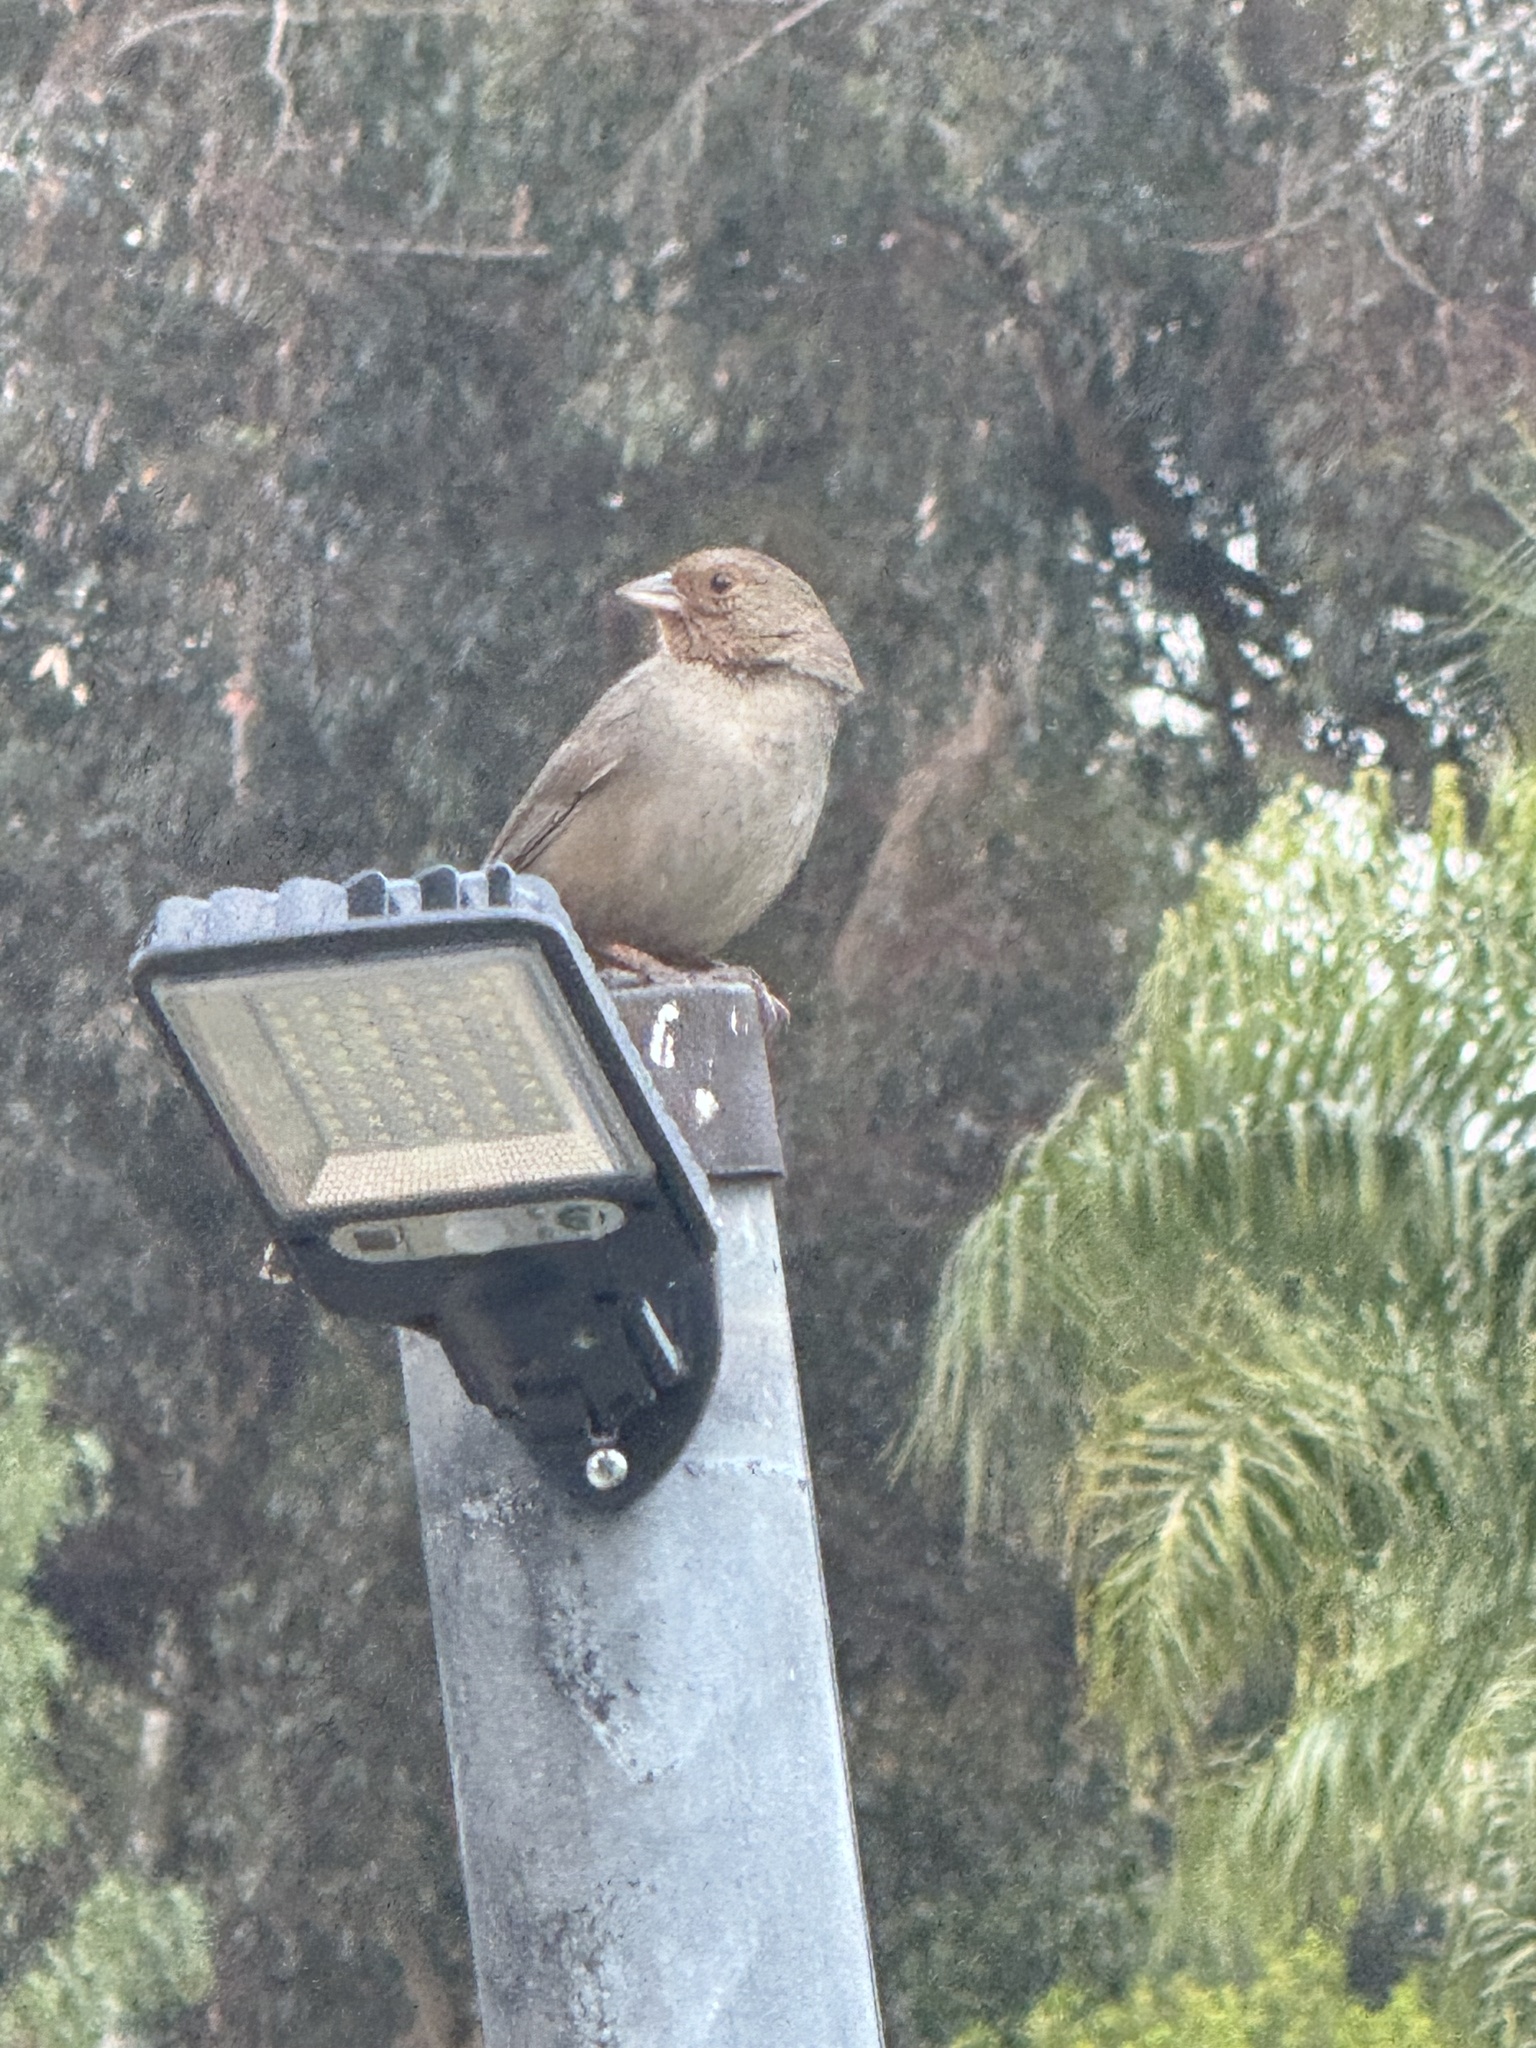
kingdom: Animalia
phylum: Chordata
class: Aves
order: Passeriformes
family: Passerellidae
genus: Melozone
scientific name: Melozone crissalis
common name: California towhee
